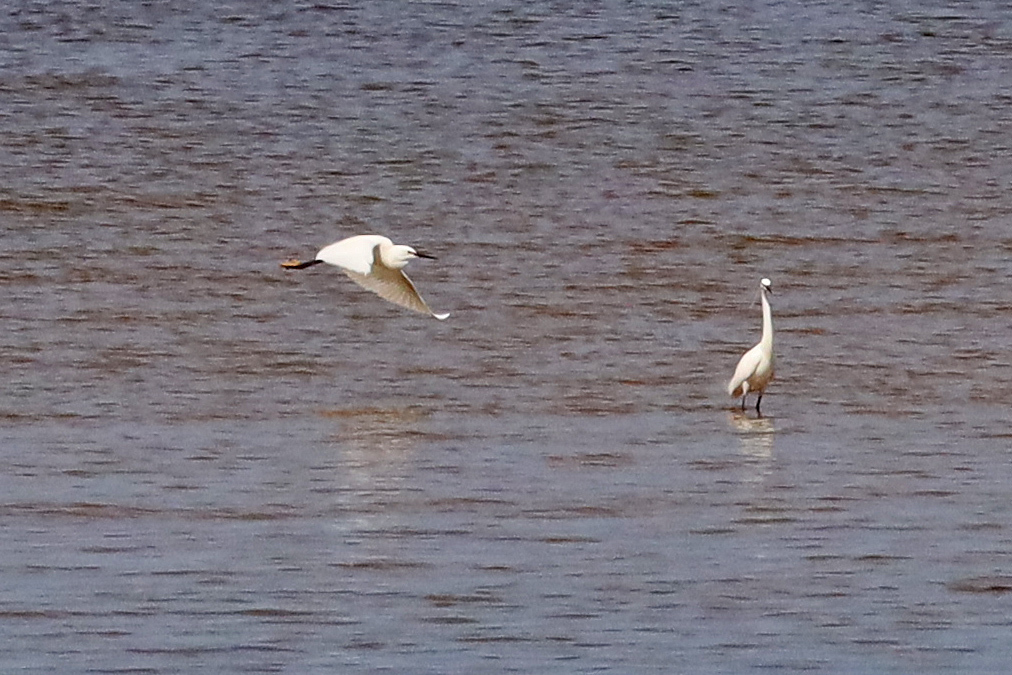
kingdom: Animalia
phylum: Chordata
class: Aves
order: Pelecaniformes
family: Ardeidae
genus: Egretta
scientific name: Egretta garzetta
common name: Little egret
